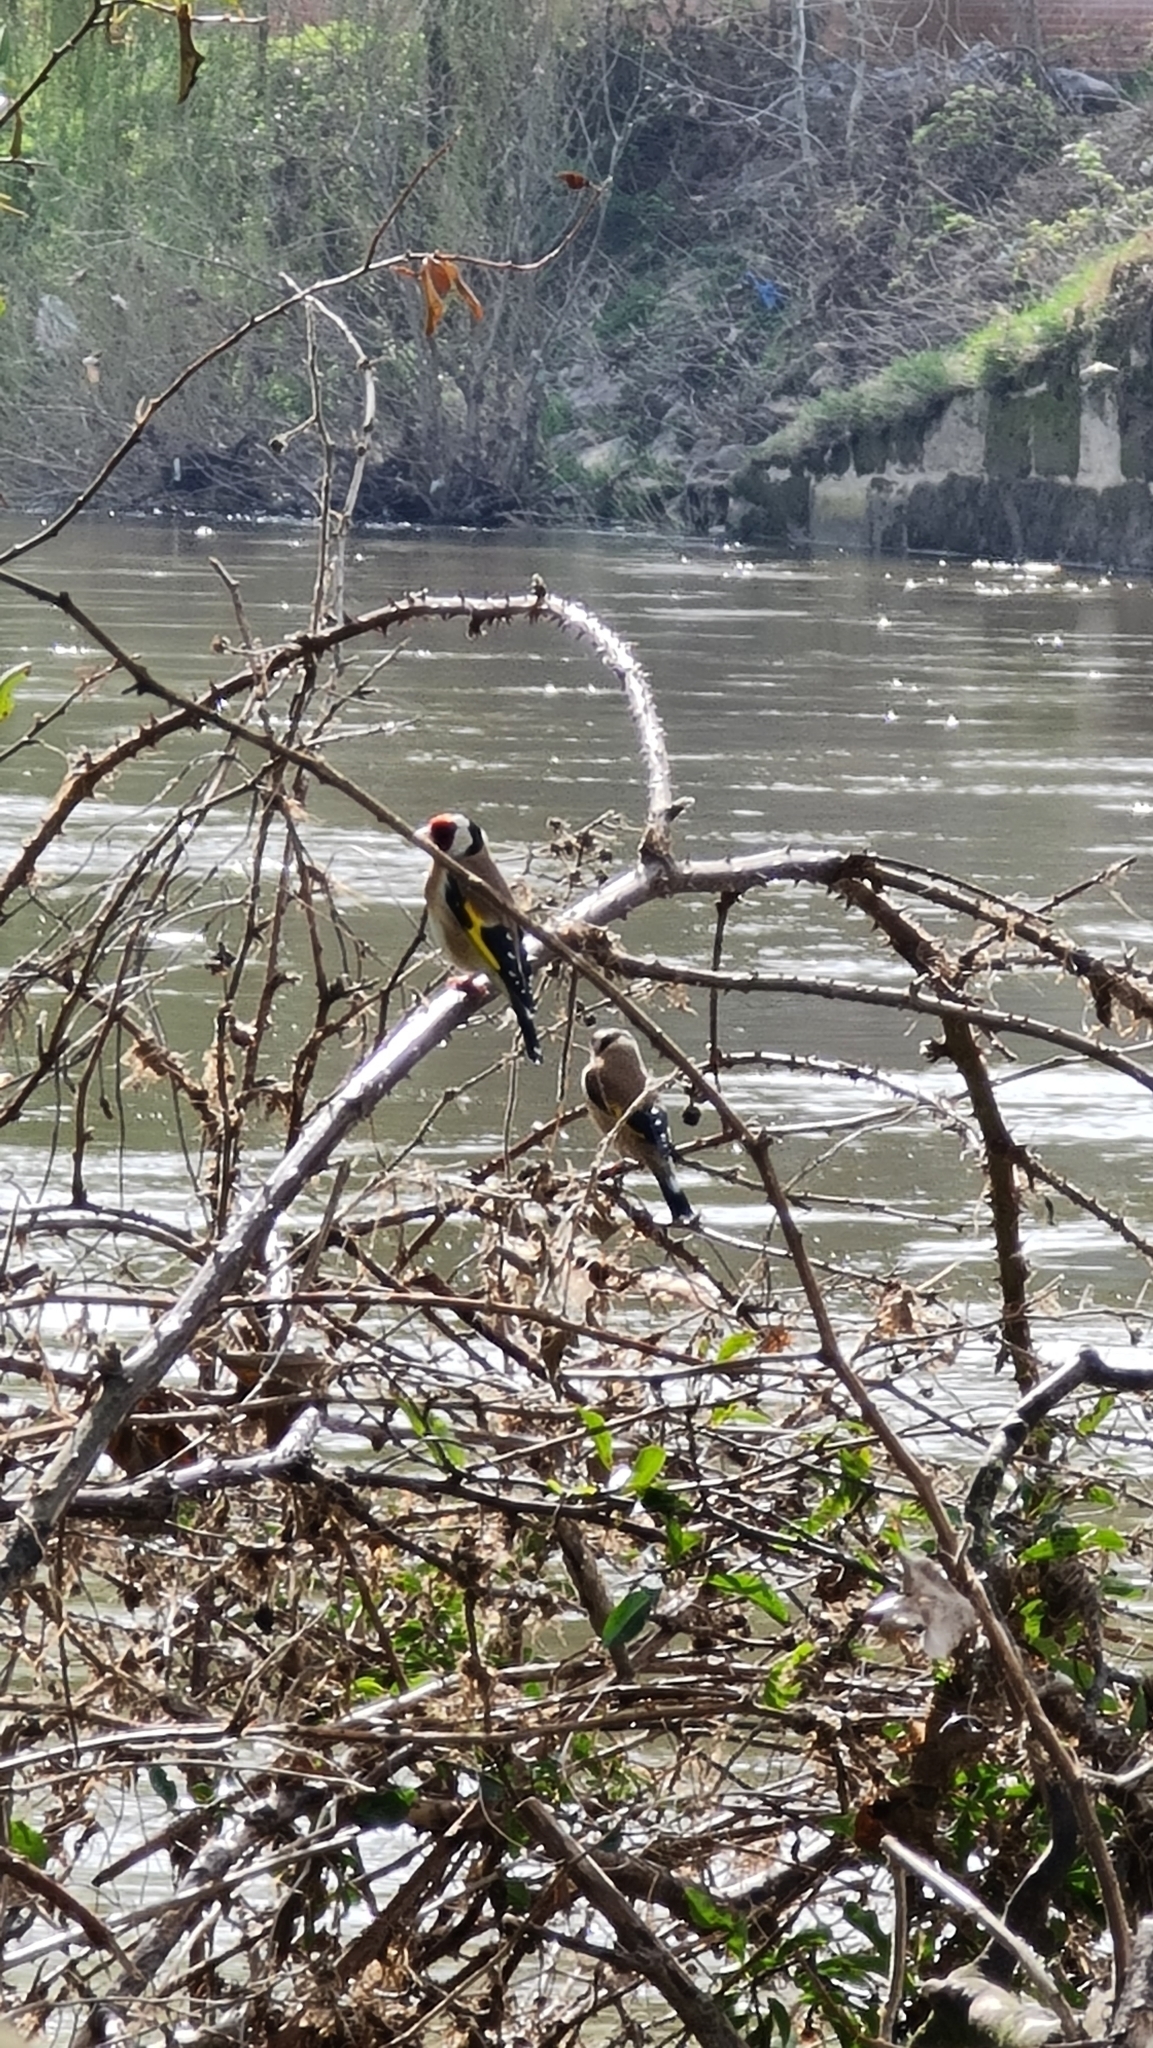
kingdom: Animalia
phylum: Chordata
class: Aves
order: Passeriformes
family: Fringillidae
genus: Carduelis
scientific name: Carduelis carduelis
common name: European goldfinch
